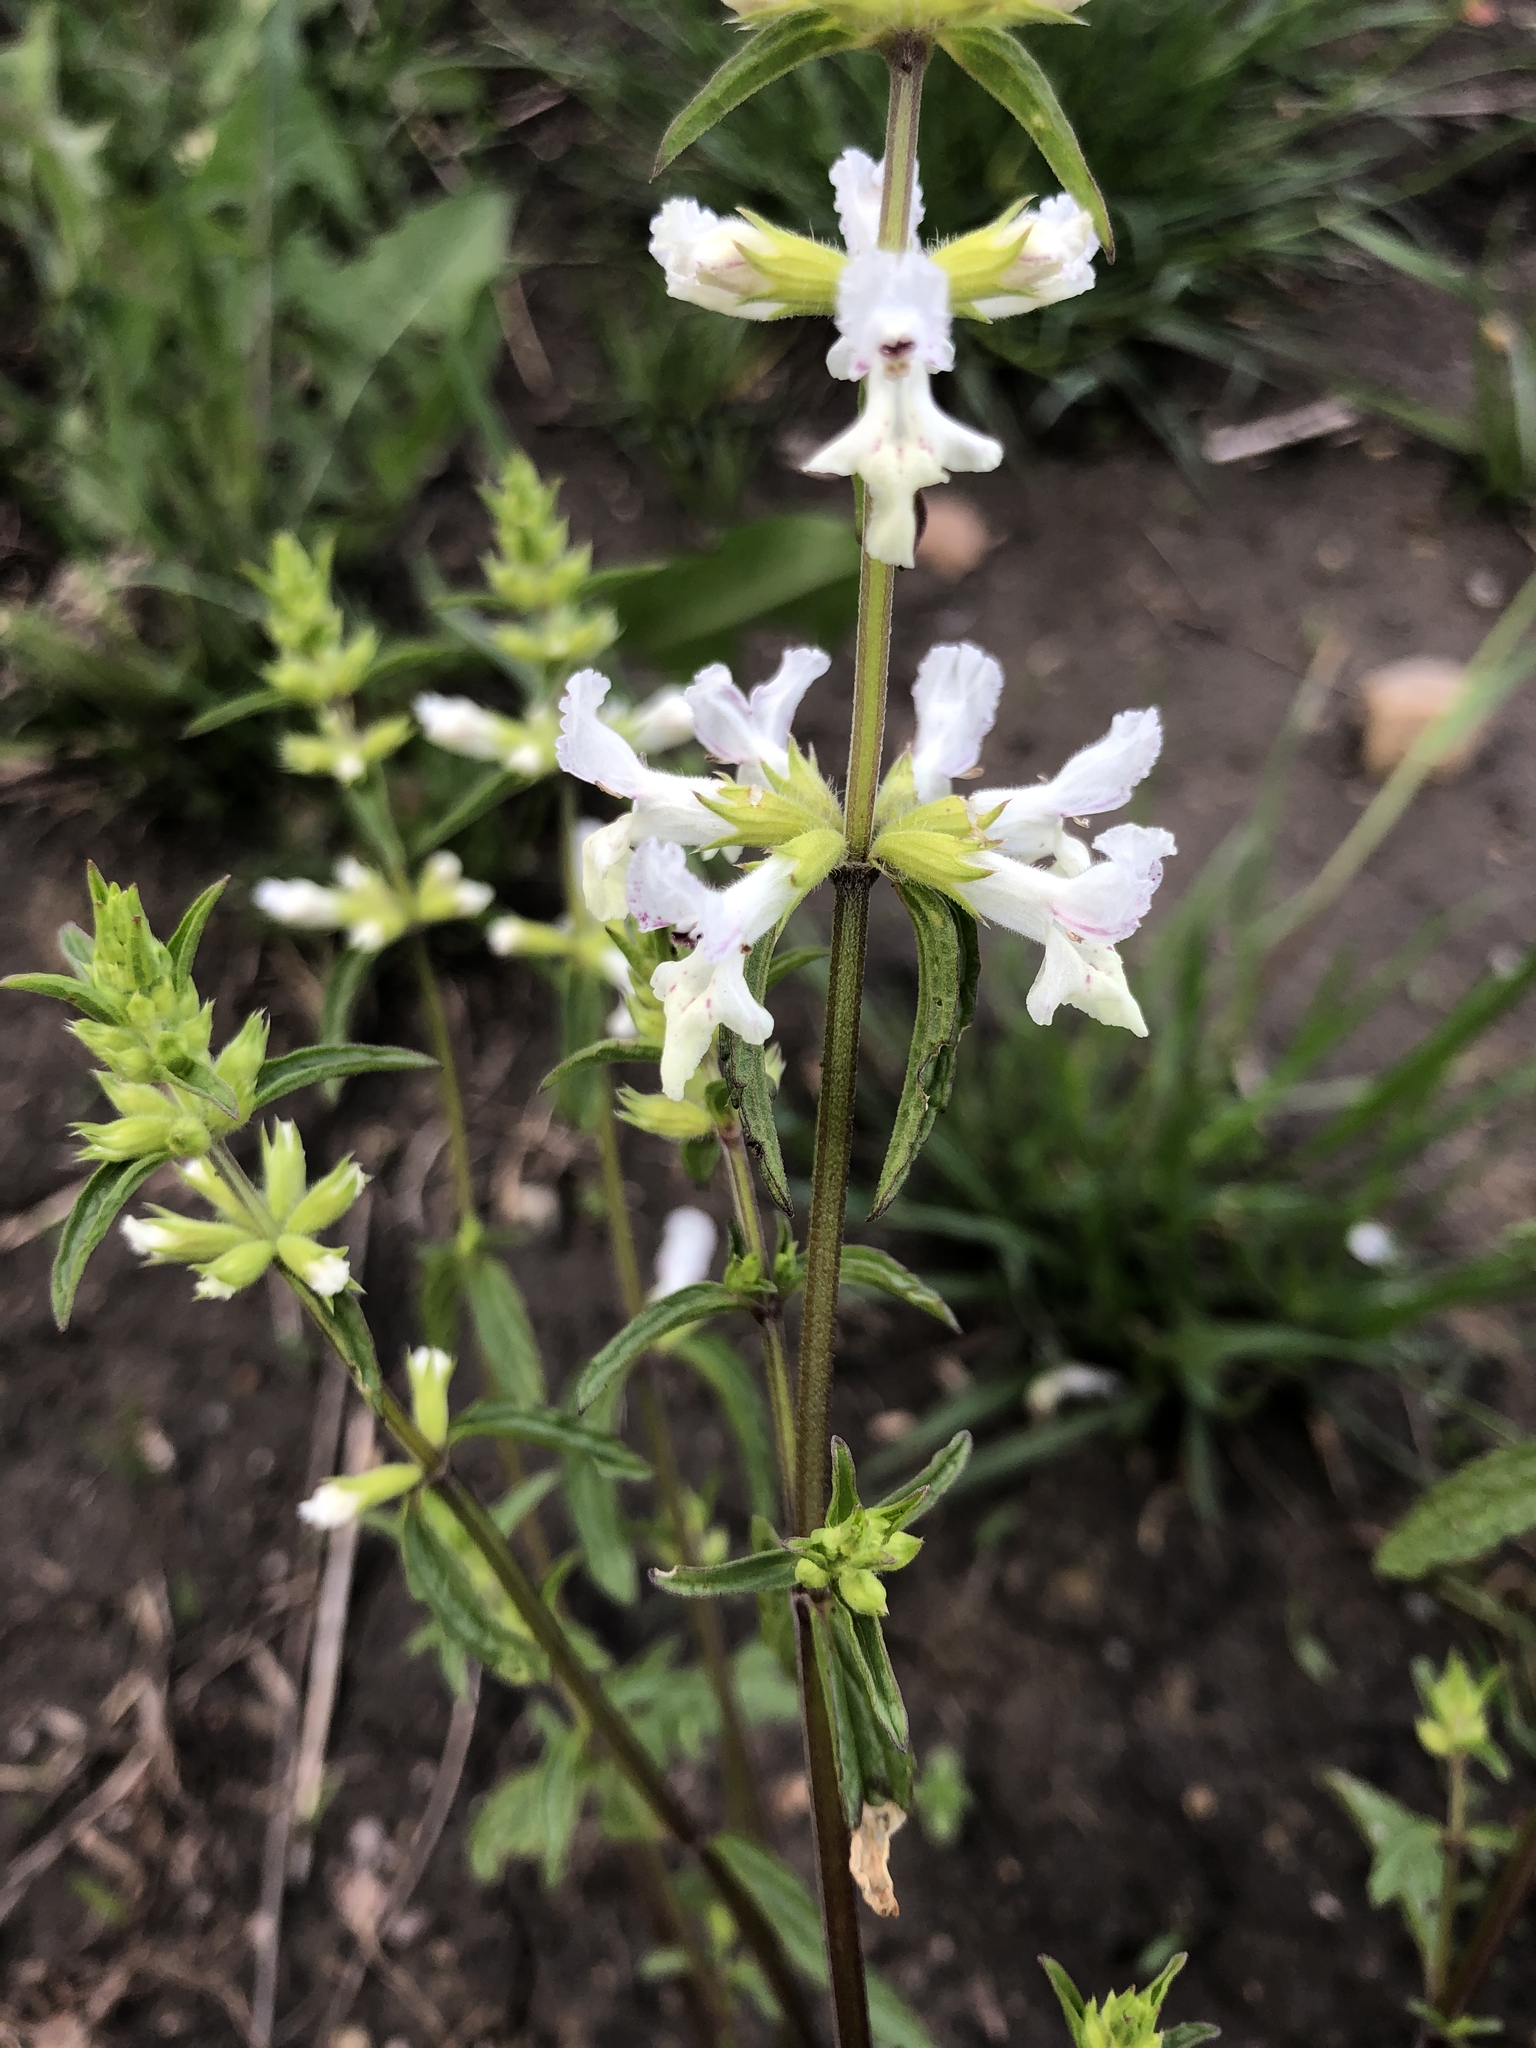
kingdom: Plantae
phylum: Tracheophyta
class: Magnoliopsida
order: Lamiales
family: Lamiaceae
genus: Stachys
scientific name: Stachys annua
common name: Annual yellow-woundwort
